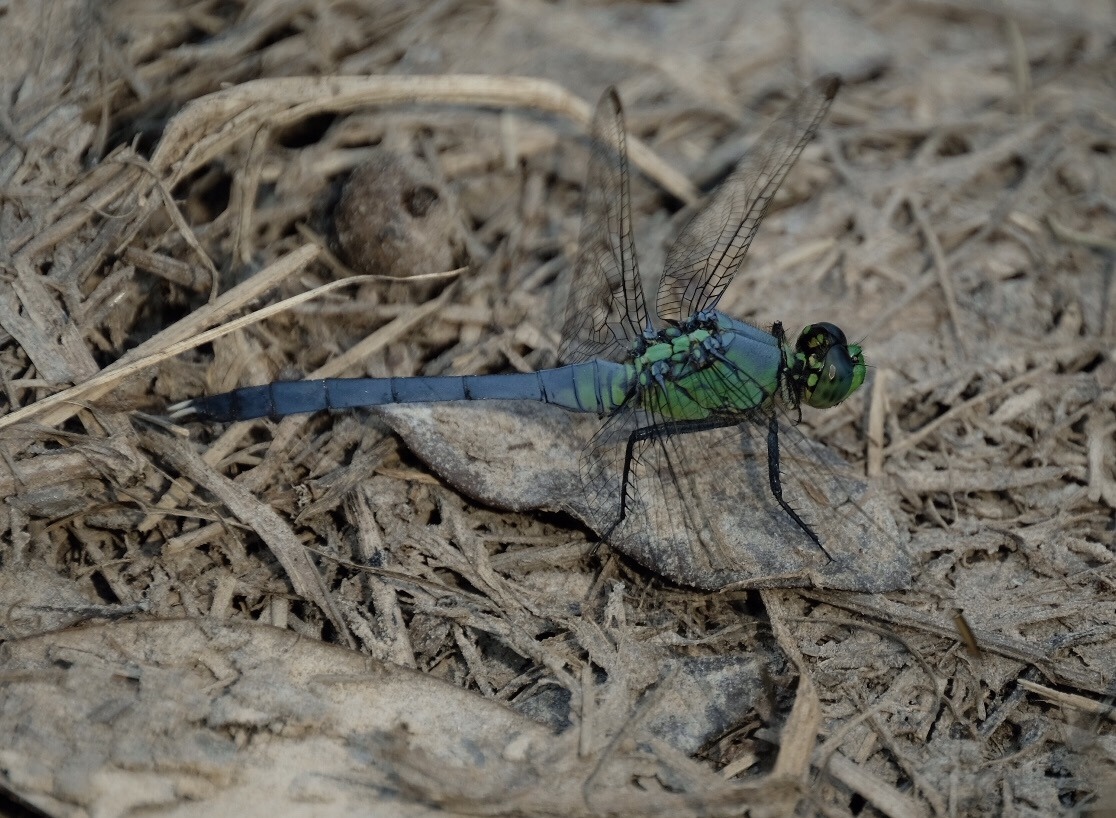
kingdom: Animalia
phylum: Arthropoda
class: Insecta
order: Odonata
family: Libellulidae
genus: Erythemis
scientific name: Erythemis simplicicollis
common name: Eastern pondhawk
